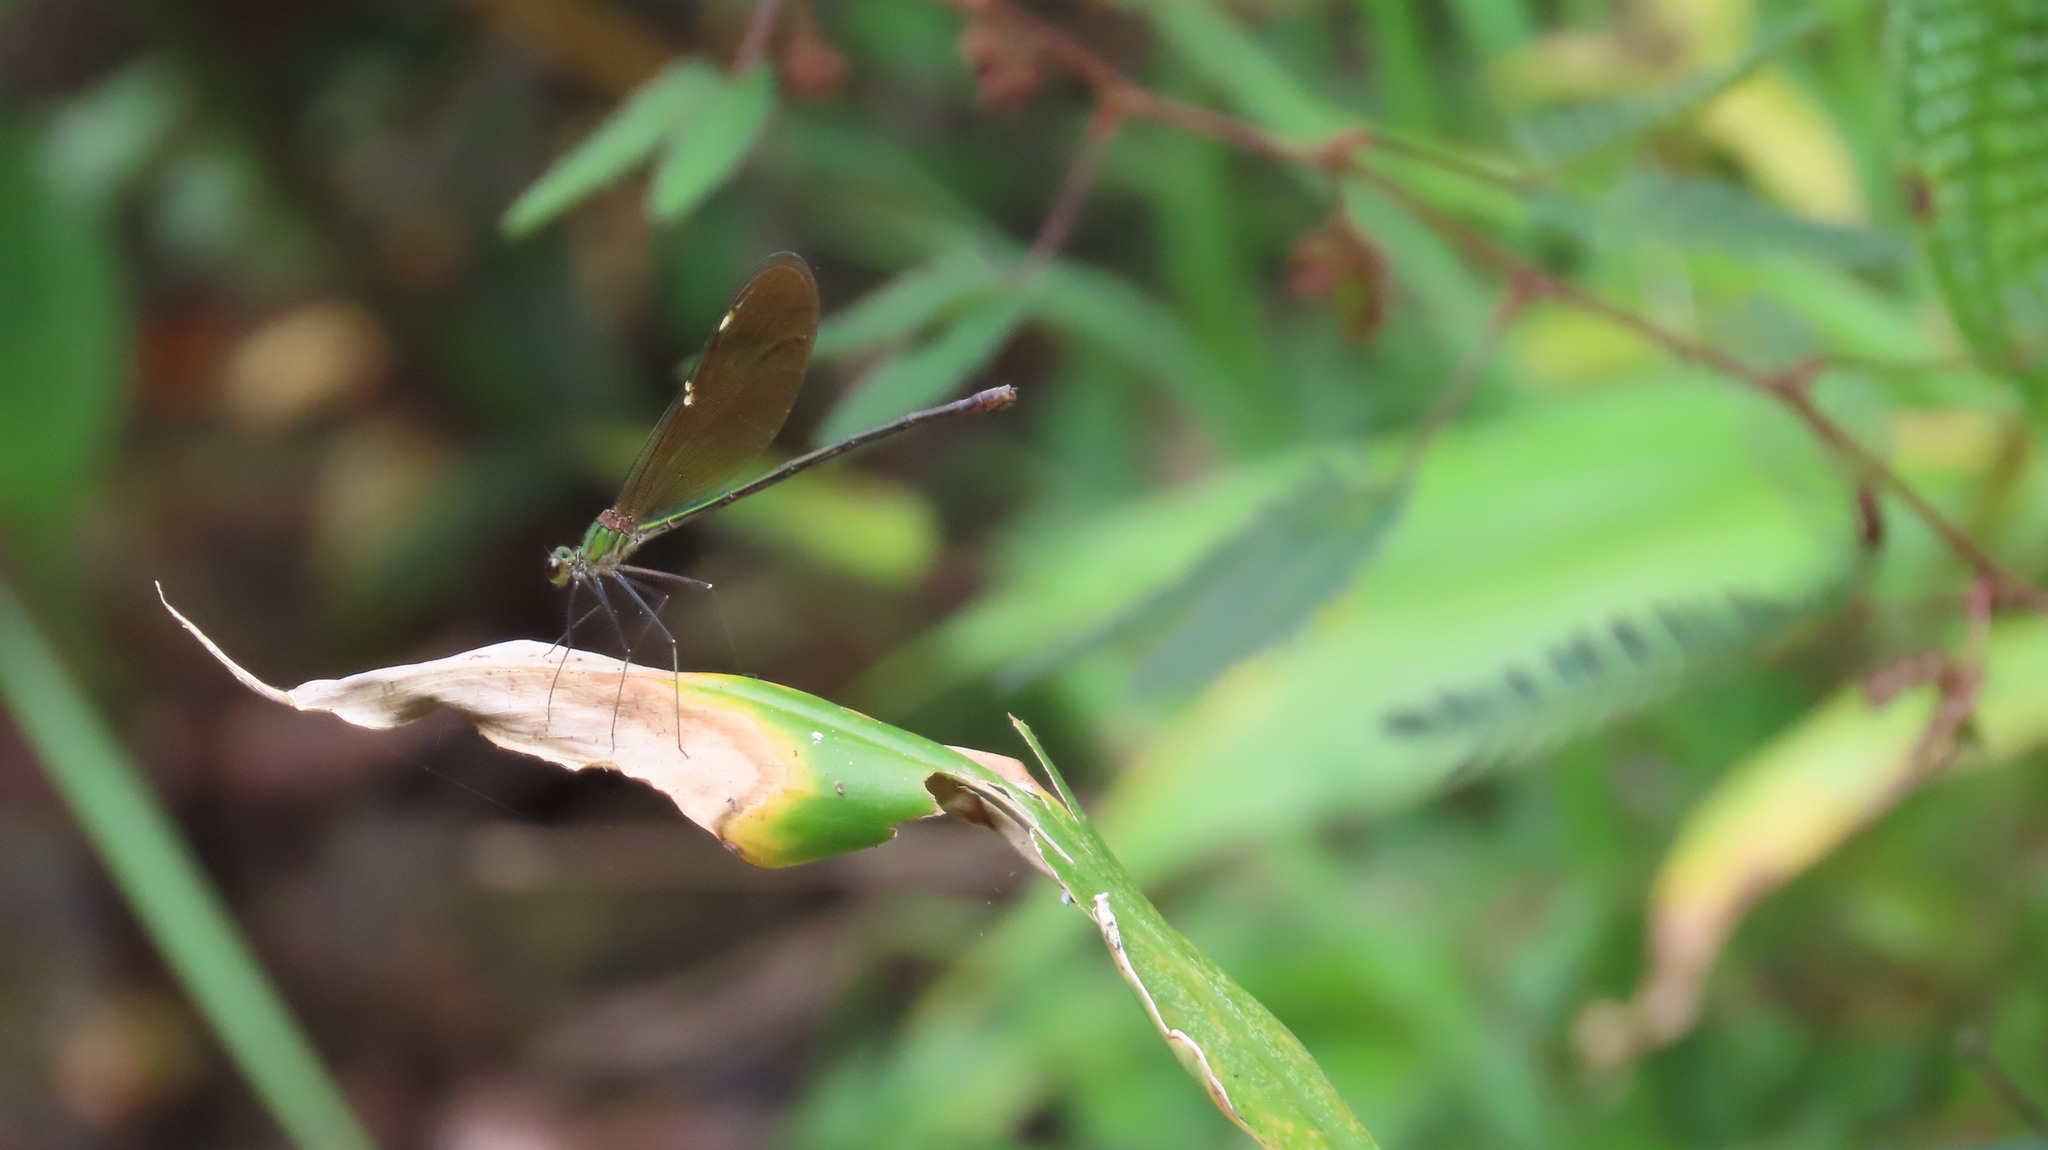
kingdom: Animalia
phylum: Arthropoda
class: Insecta
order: Odonata
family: Calopterygidae
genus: Neurobasis
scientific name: Neurobasis chinensis
